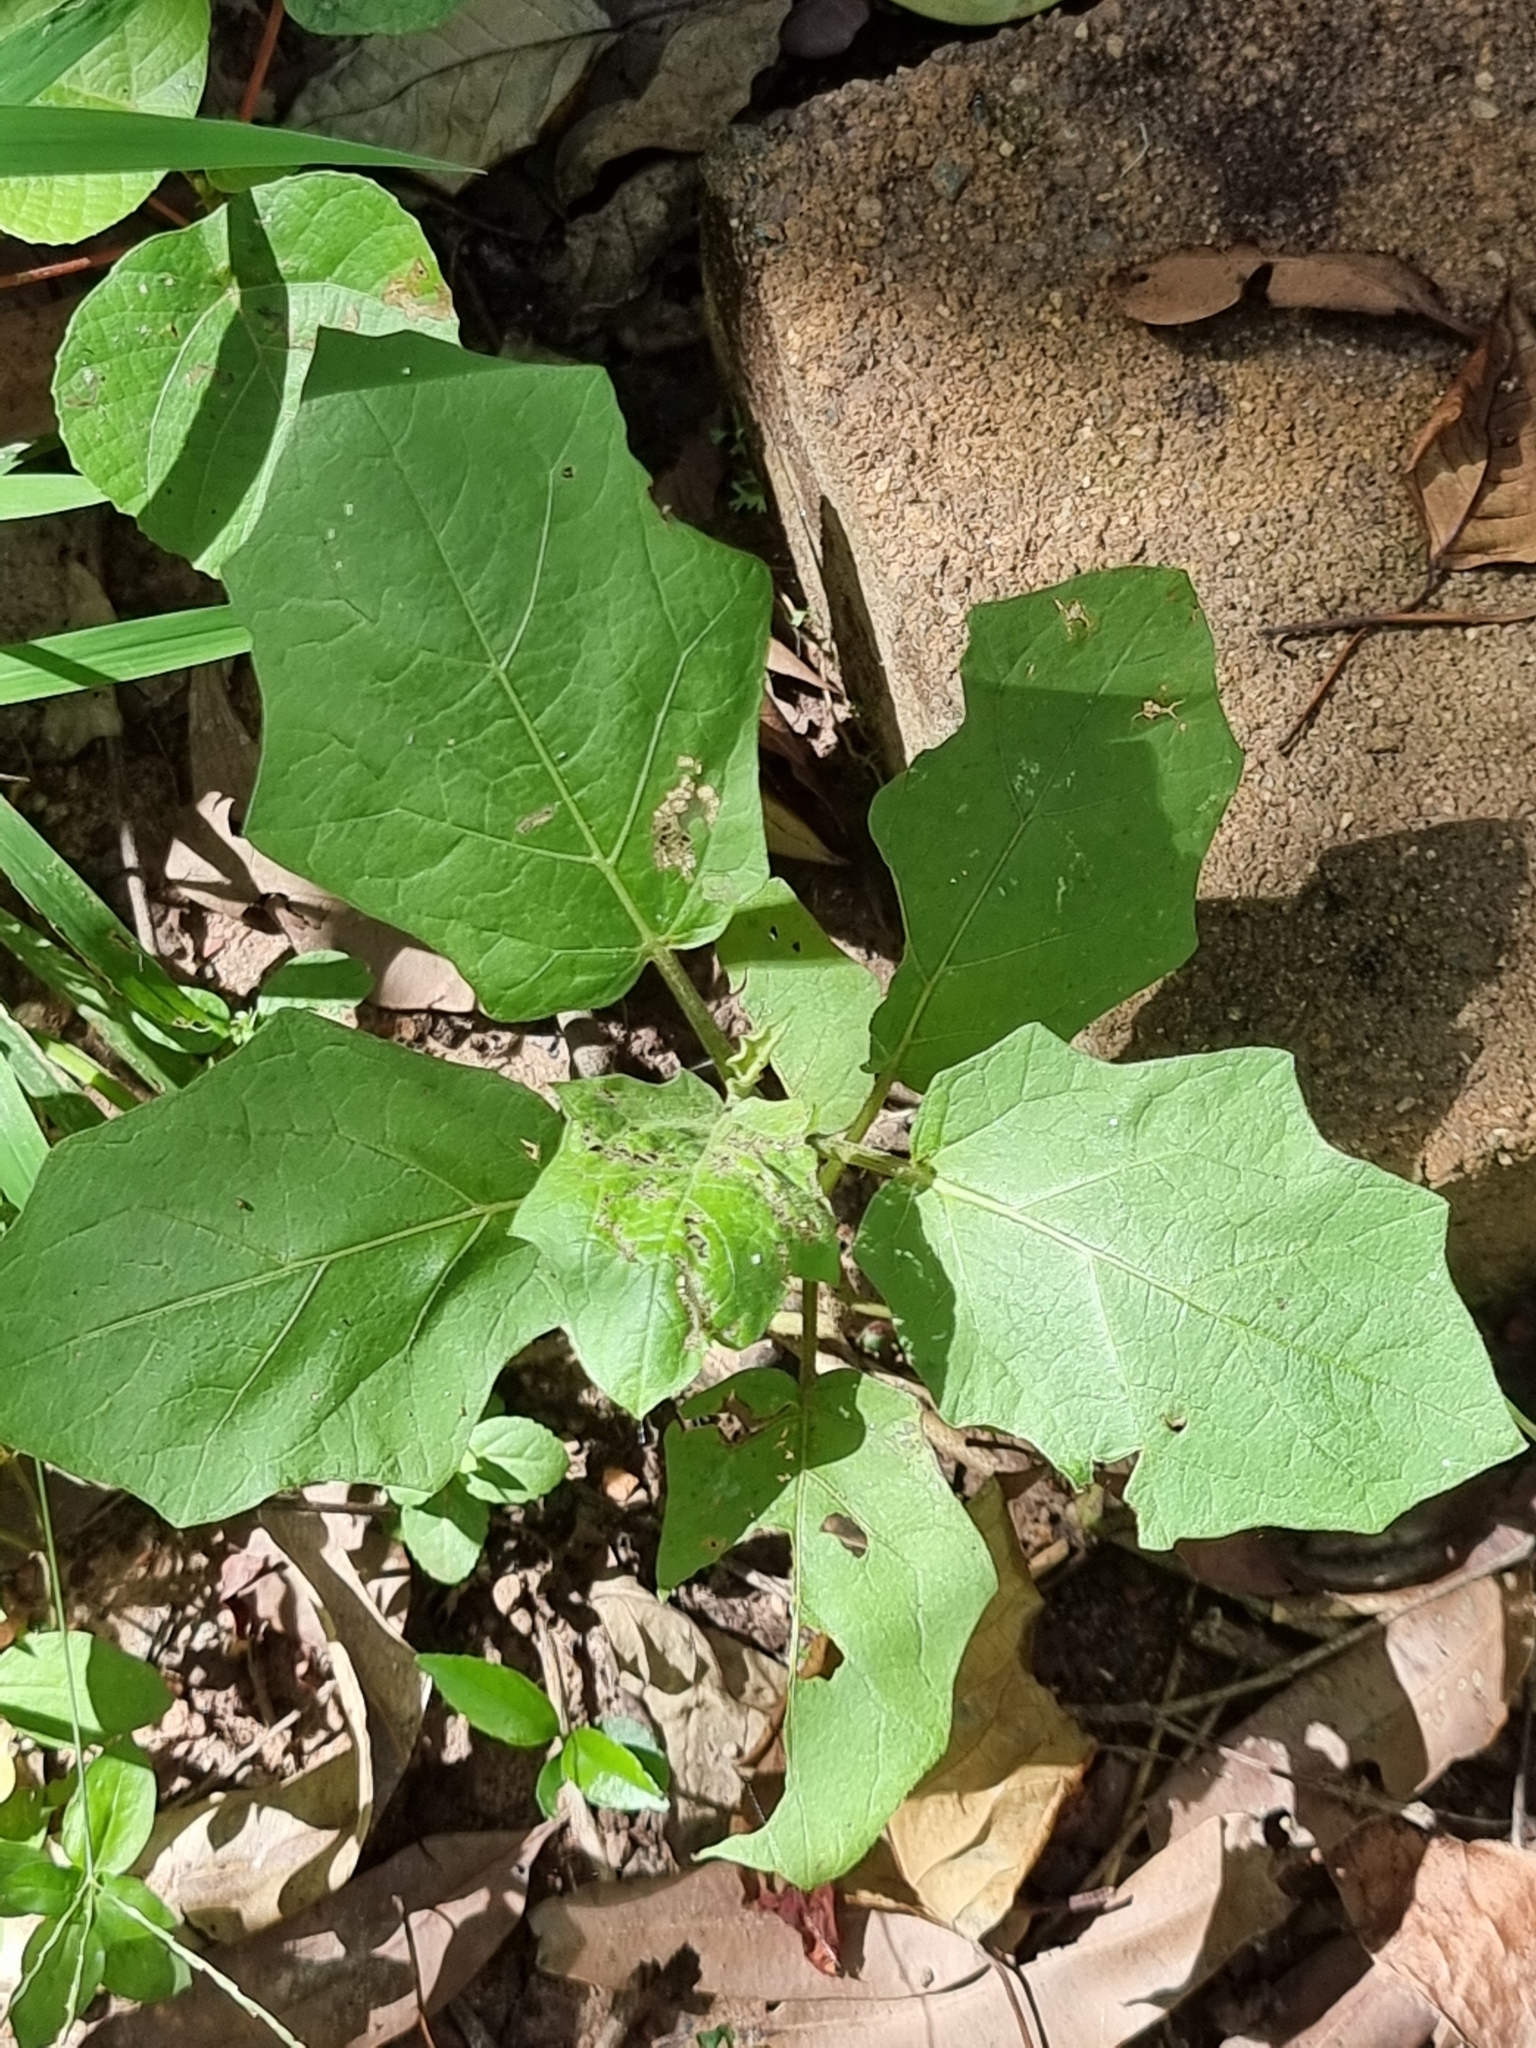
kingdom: Plantae
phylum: Tracheophyta
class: Magnoliopsida
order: Solanales
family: Solanaceae
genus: Solanum
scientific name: Solanum torvum
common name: Turkey berry
